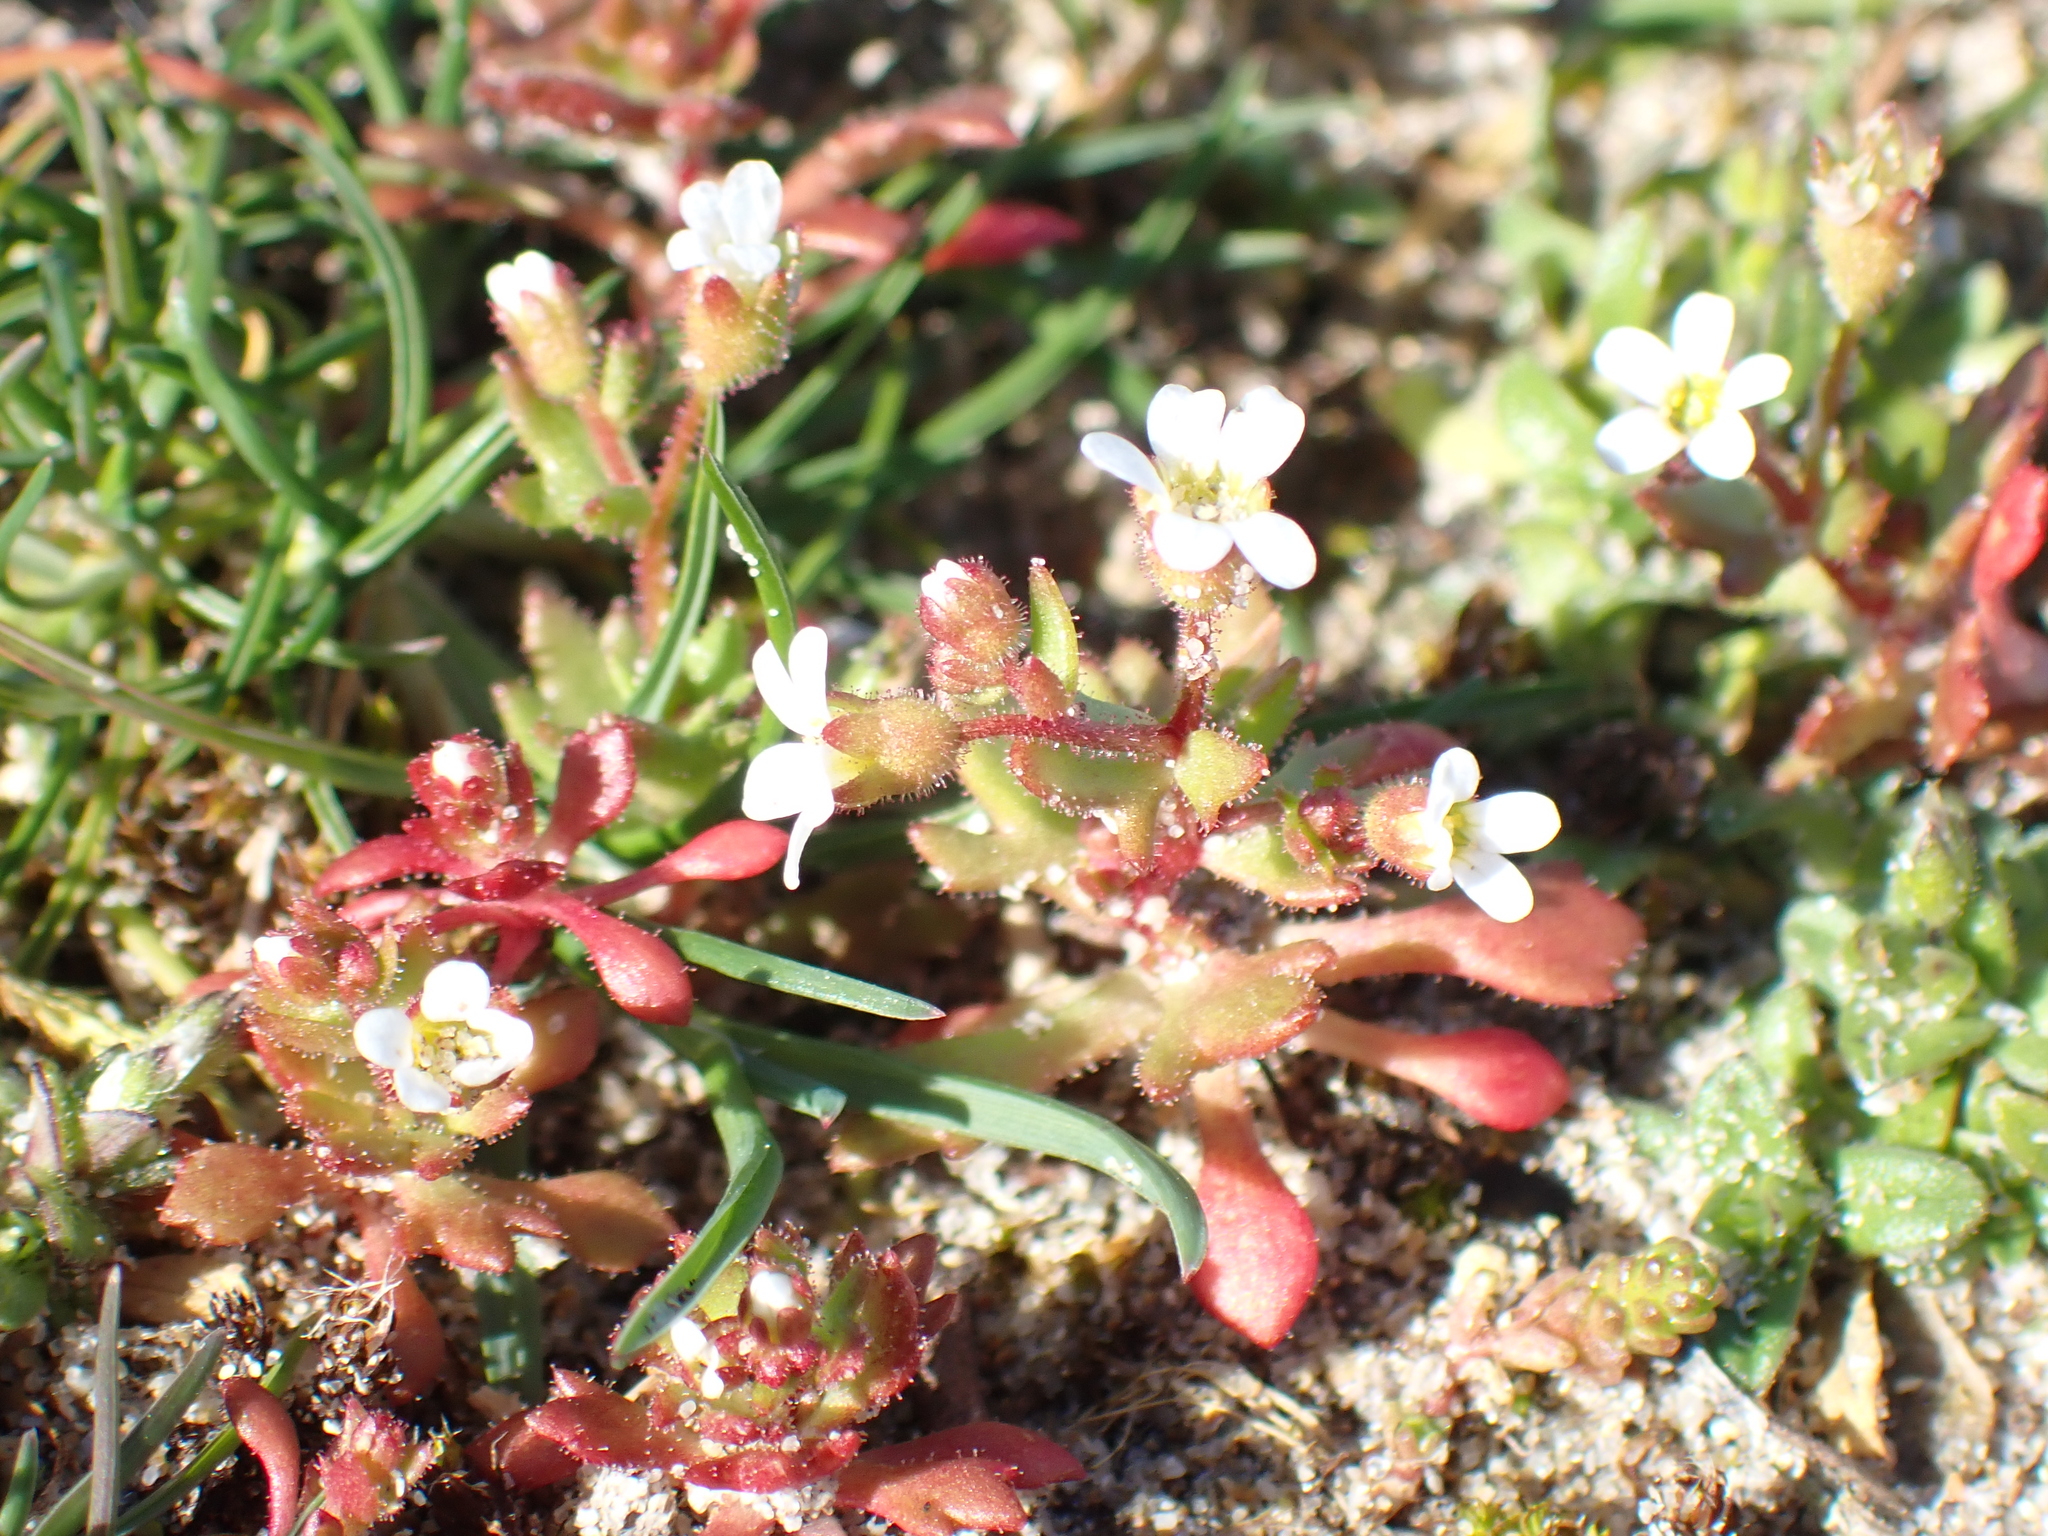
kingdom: Plantae
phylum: Tracheophyta
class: Magnoliopsida
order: Saxifragales
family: Saxifragaceae
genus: Saxifraga
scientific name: Saxifraga tridactylites
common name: Rue-leaved saxifrage
